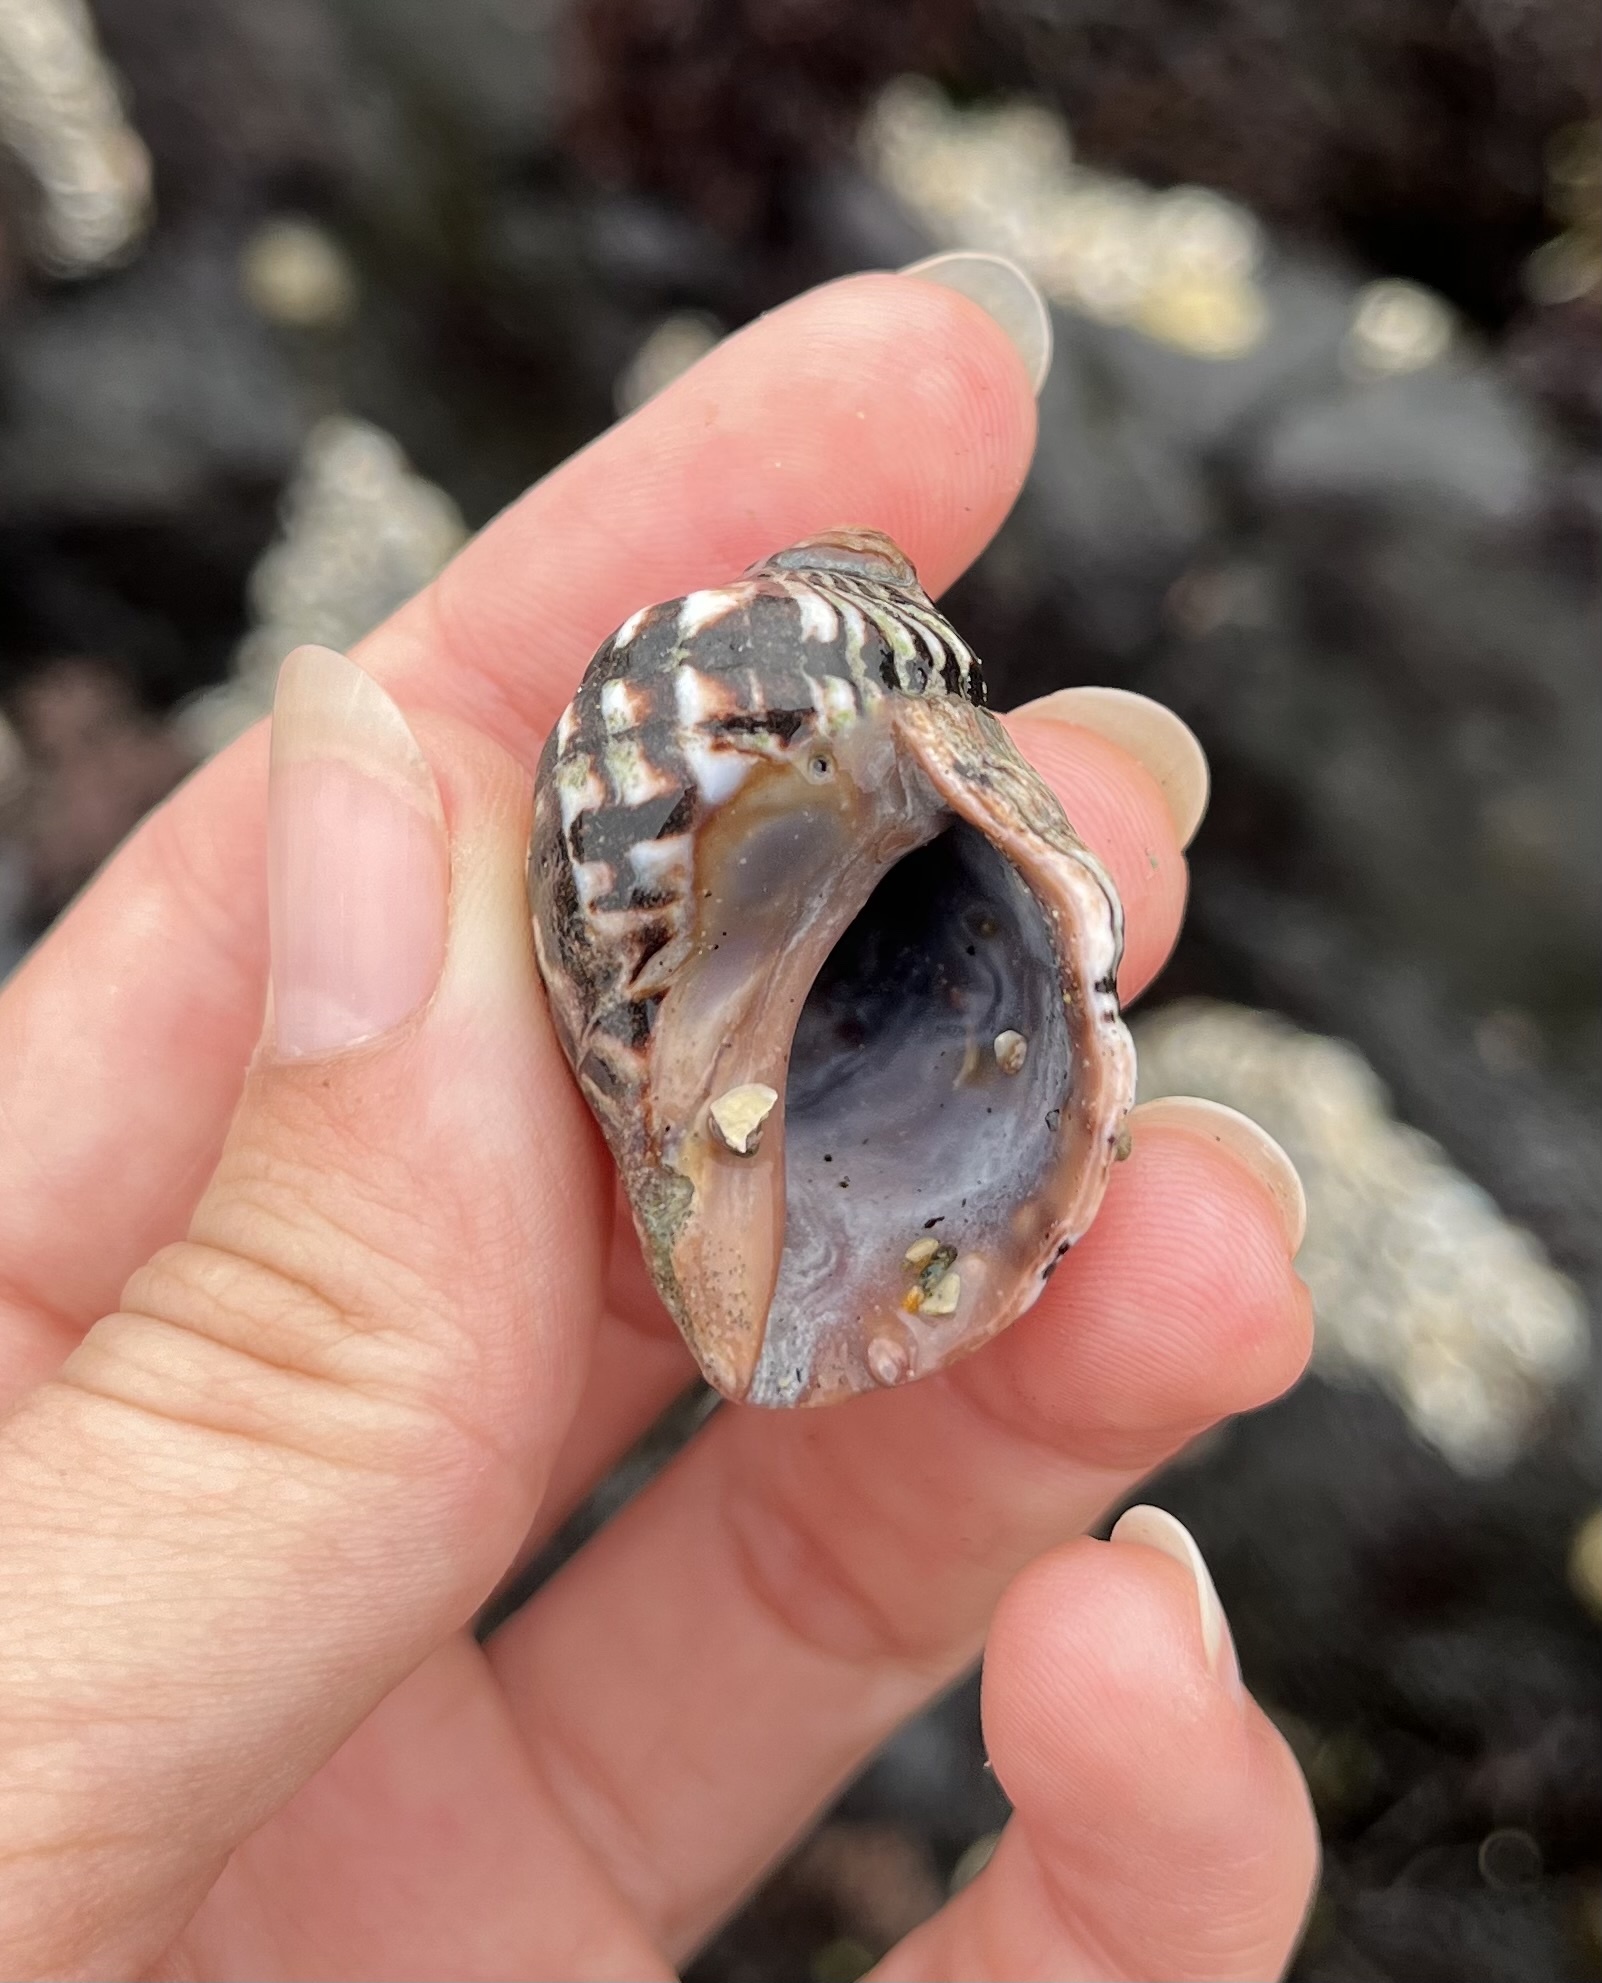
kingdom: Animalia
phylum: Mollusca
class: Gastropoda
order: Neogastropoda
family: Muricidae
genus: Mexacanthina
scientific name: Mexacanthina lugubris
